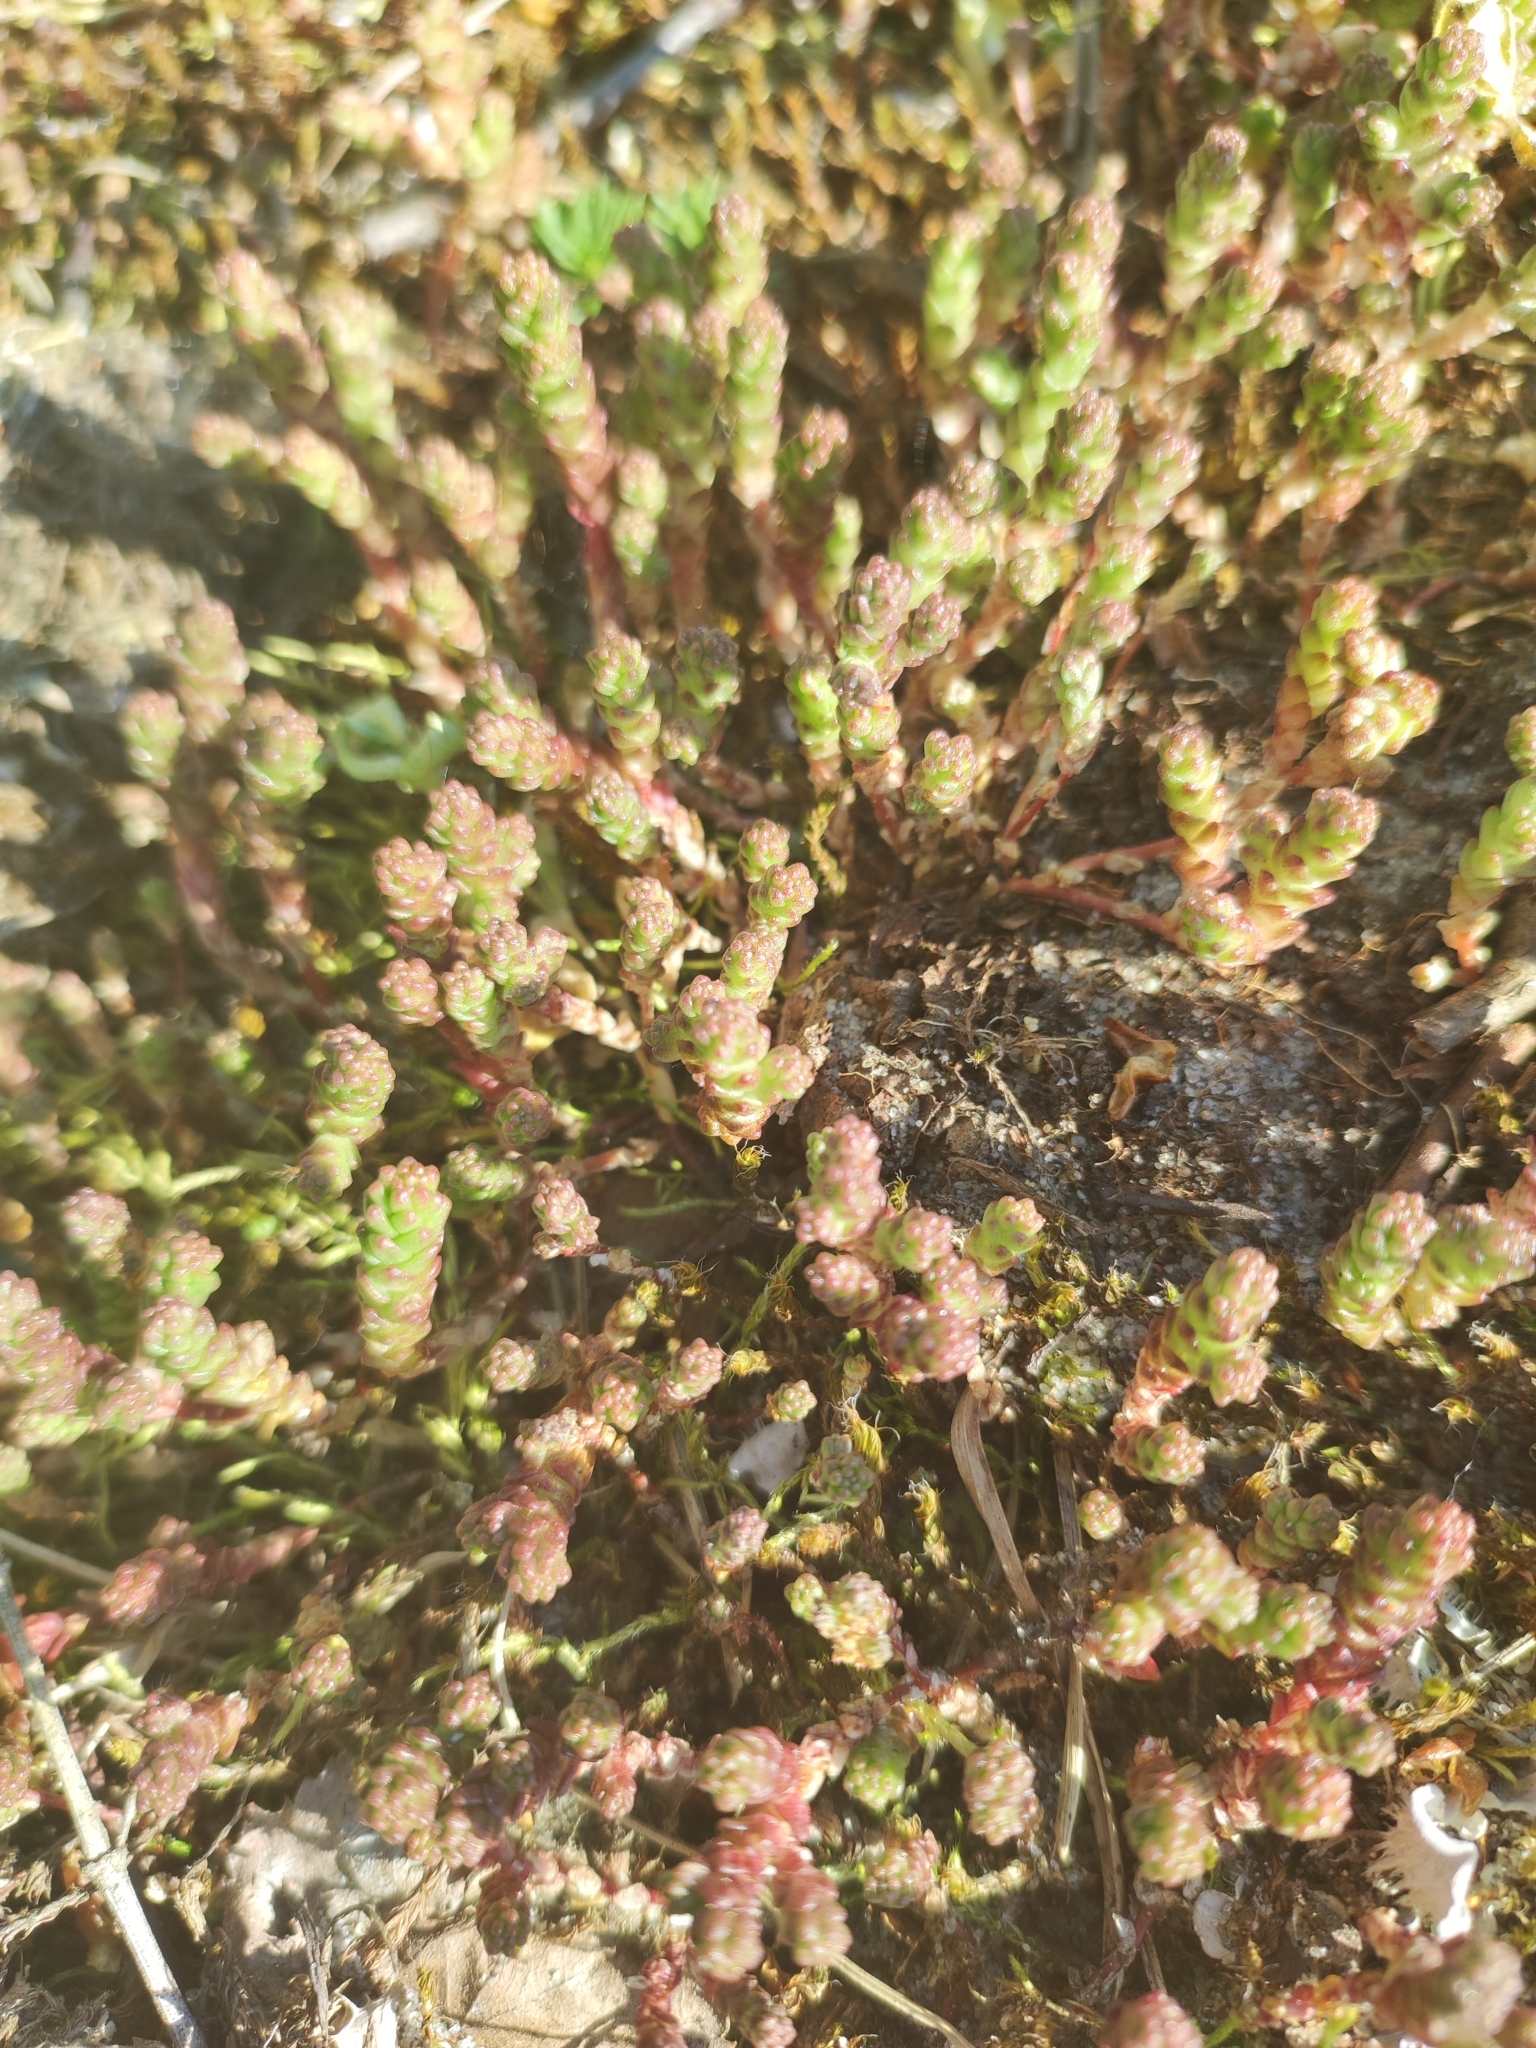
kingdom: Plantae
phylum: Tracheophyta
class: Magnoliopsida
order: Saxifragales
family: Crassulaceae
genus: Sedum
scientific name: Sedum acre
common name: Biting stonecrop
